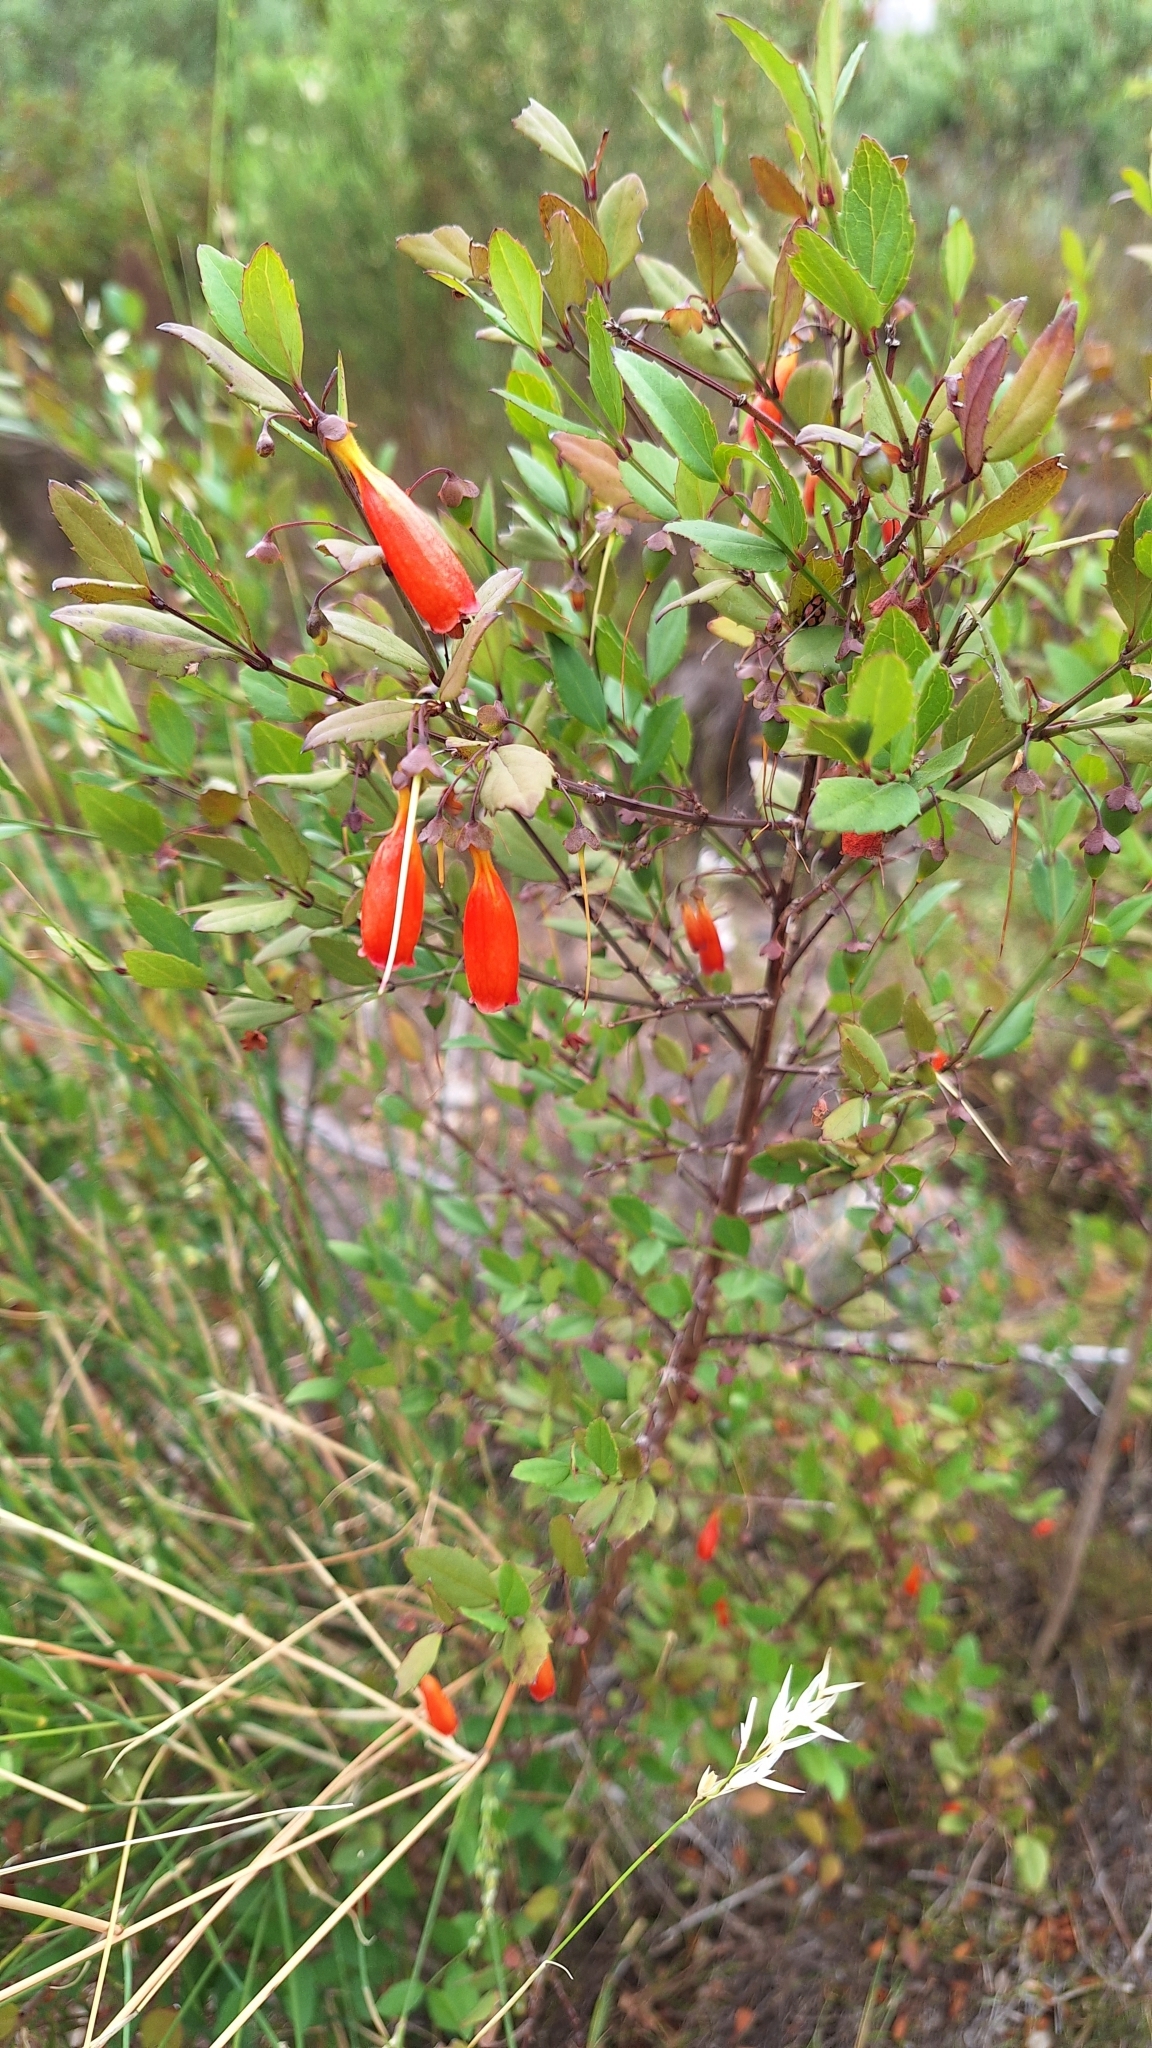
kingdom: Plantae
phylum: Tracheophyta
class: Magnoliopsida
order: Lamiales
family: Stilbaceae
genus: Halleria
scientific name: Halleria elliptica
